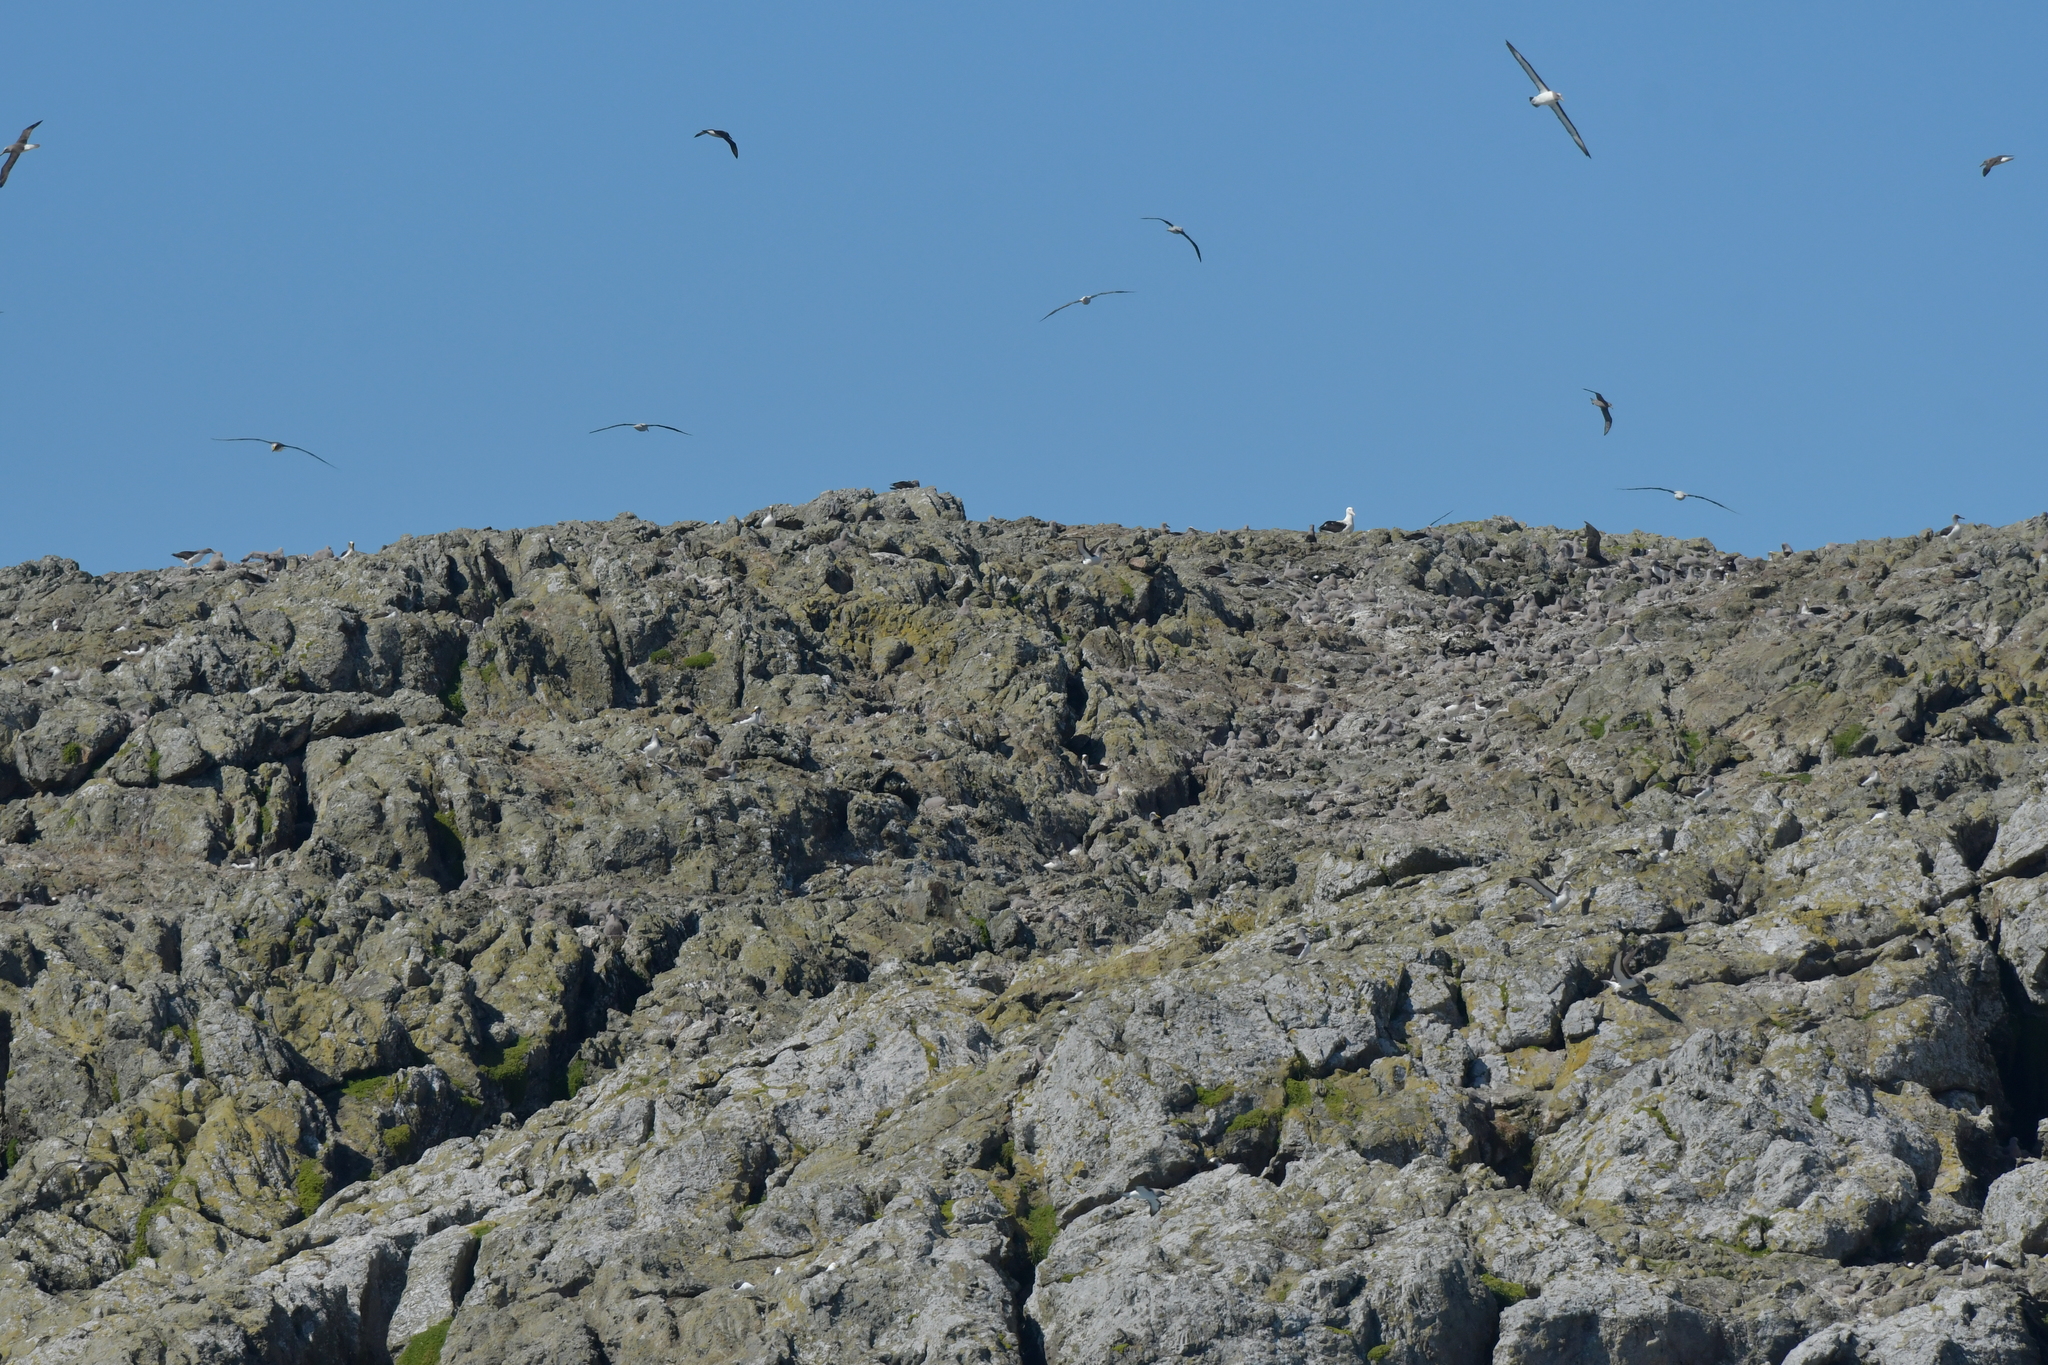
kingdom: Animalia
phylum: Chordata
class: Aves
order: Procellariiformes
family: Diomedeidae
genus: Thalassarche
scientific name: Thalassarche bulleri
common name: Buller's albatross
